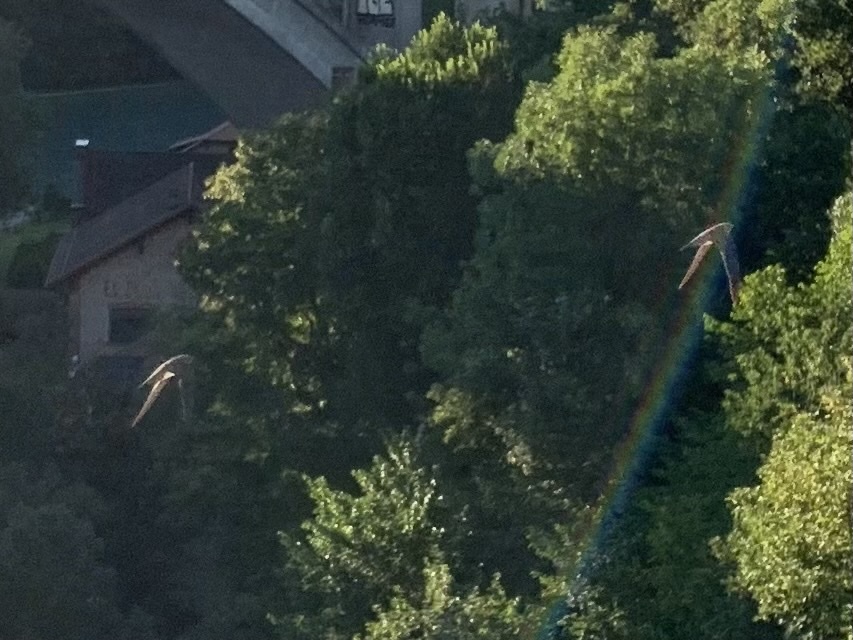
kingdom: Animalia
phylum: Chordata
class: Aves
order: Apodiformes
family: Apodidae
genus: Tachymarptis
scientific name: Tachymarptis melba
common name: Alpine swift
